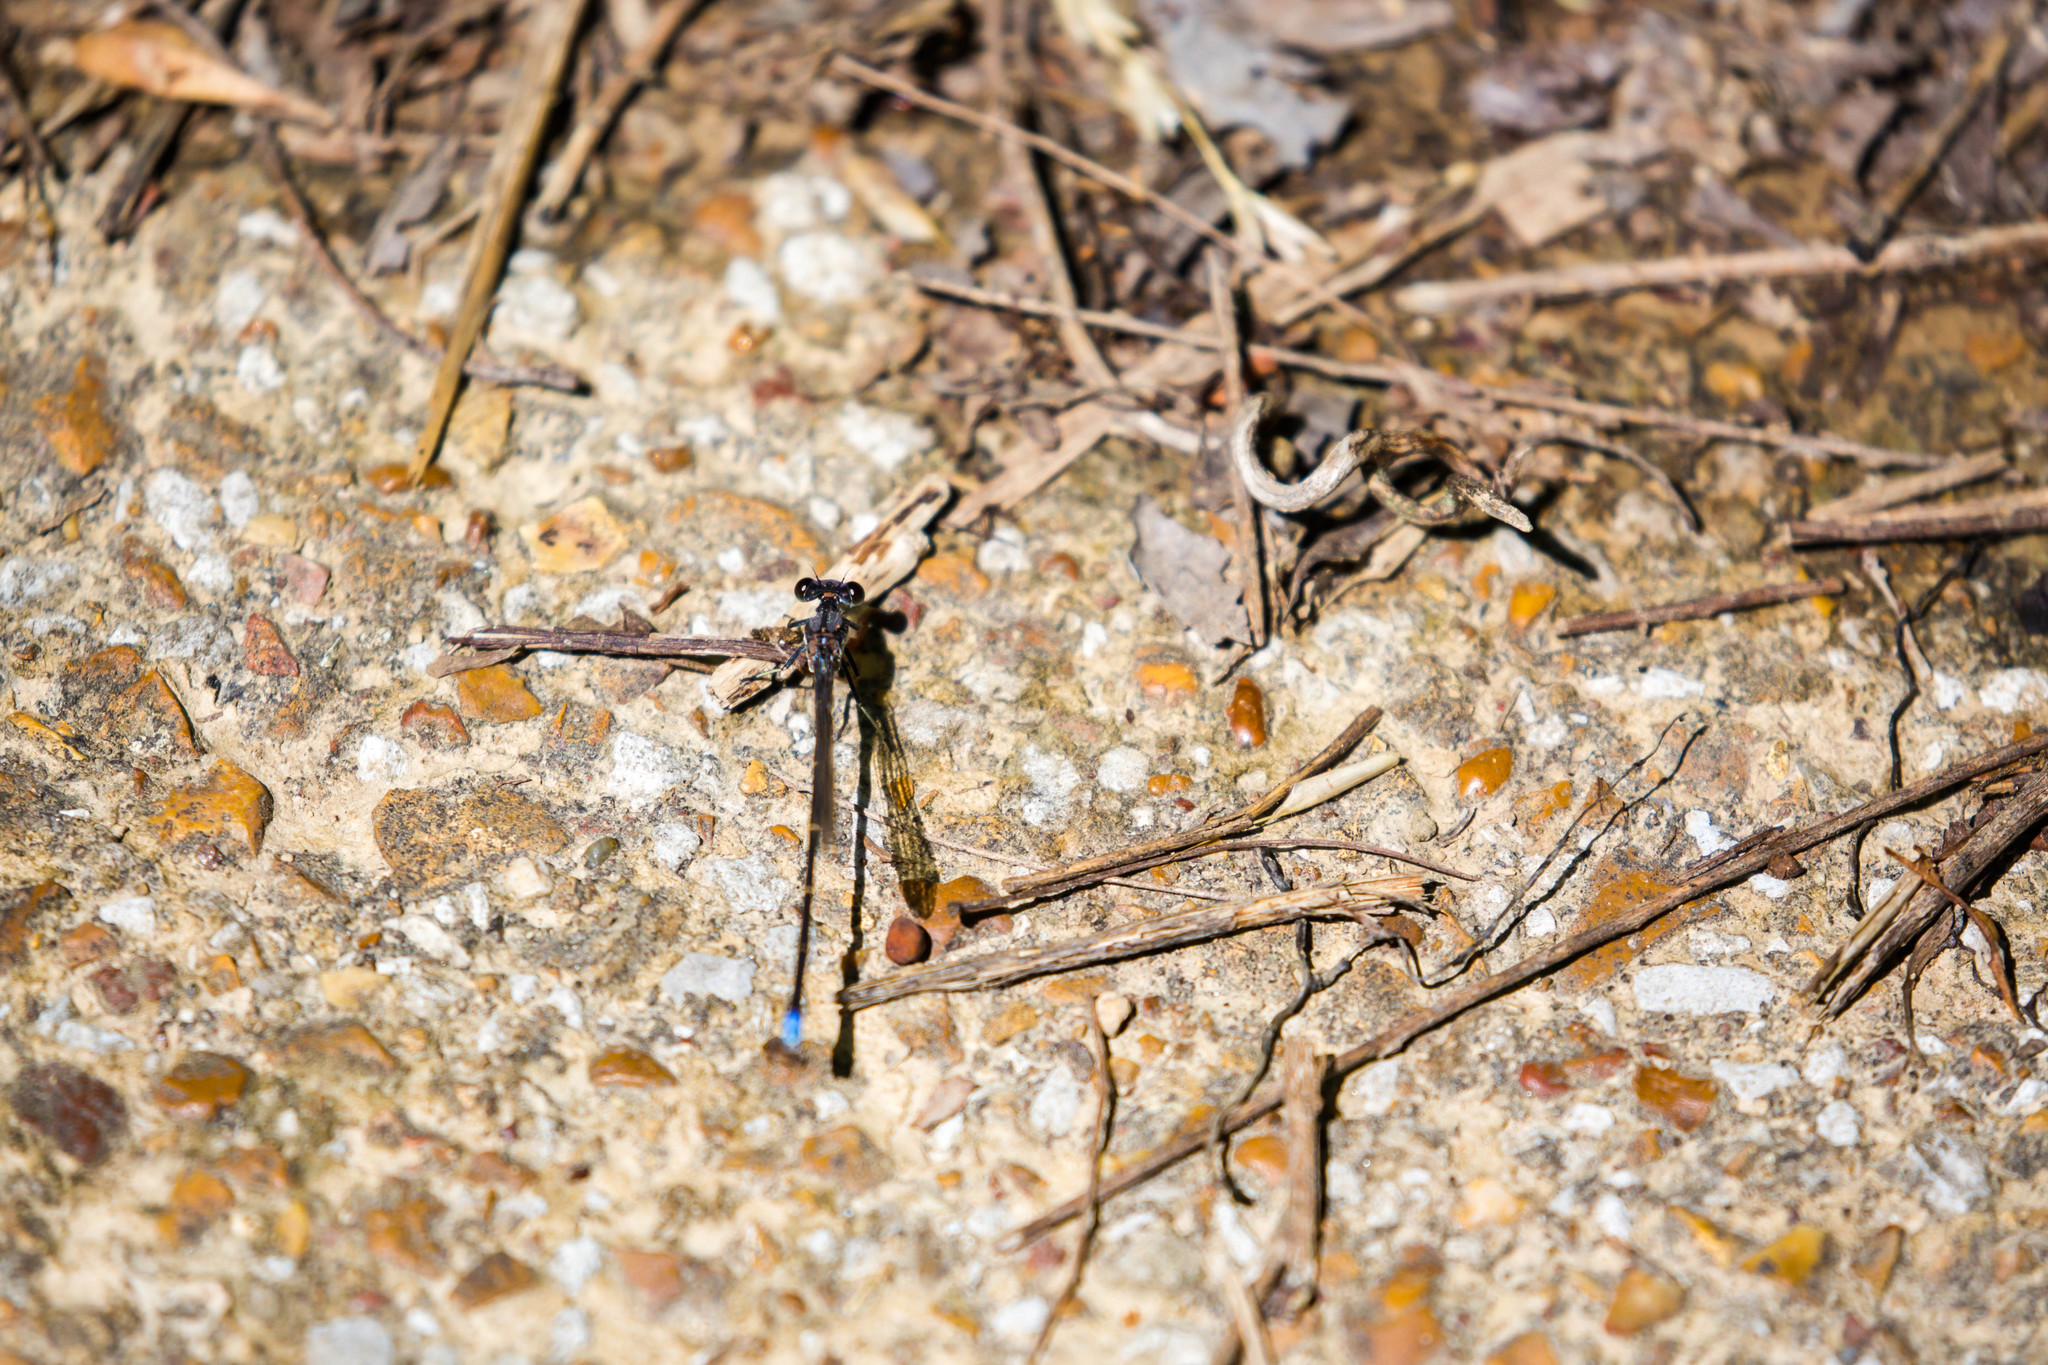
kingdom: Animalia
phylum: Arthropoda
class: Insecta
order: Odonata
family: Coenagrionidae
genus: Argia
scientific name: Argia tibialis
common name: Blue-tipped dancer
